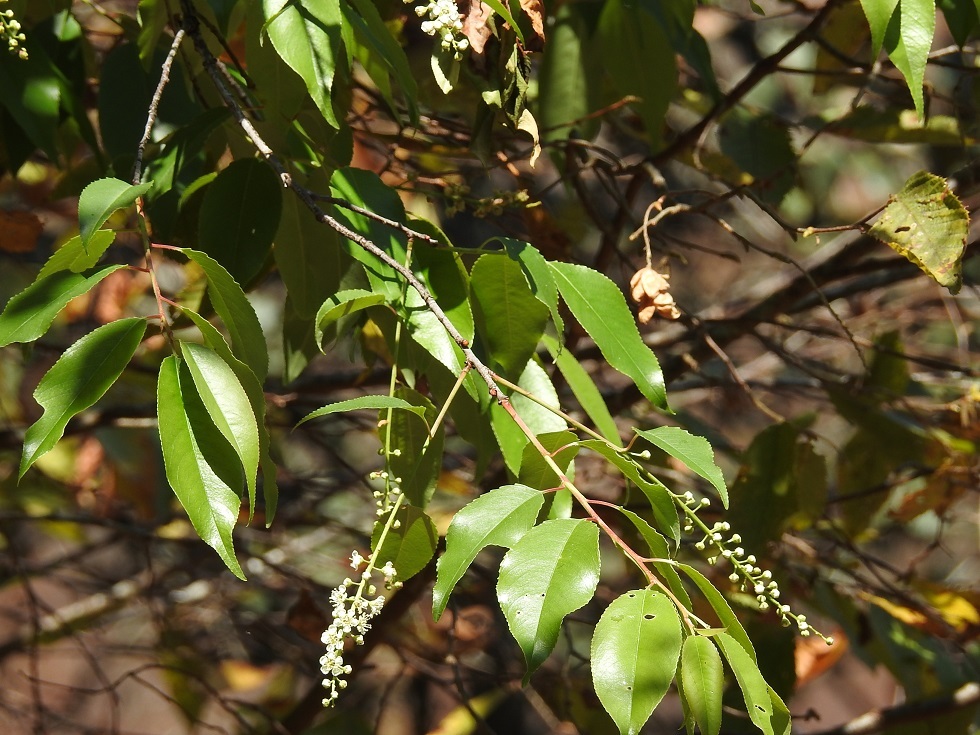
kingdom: Plantae
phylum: Tracheophyta
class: Magnoliopsida
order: Rosales
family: Rosaceae
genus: Prunus
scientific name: Prunus serotina
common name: Black cherry
